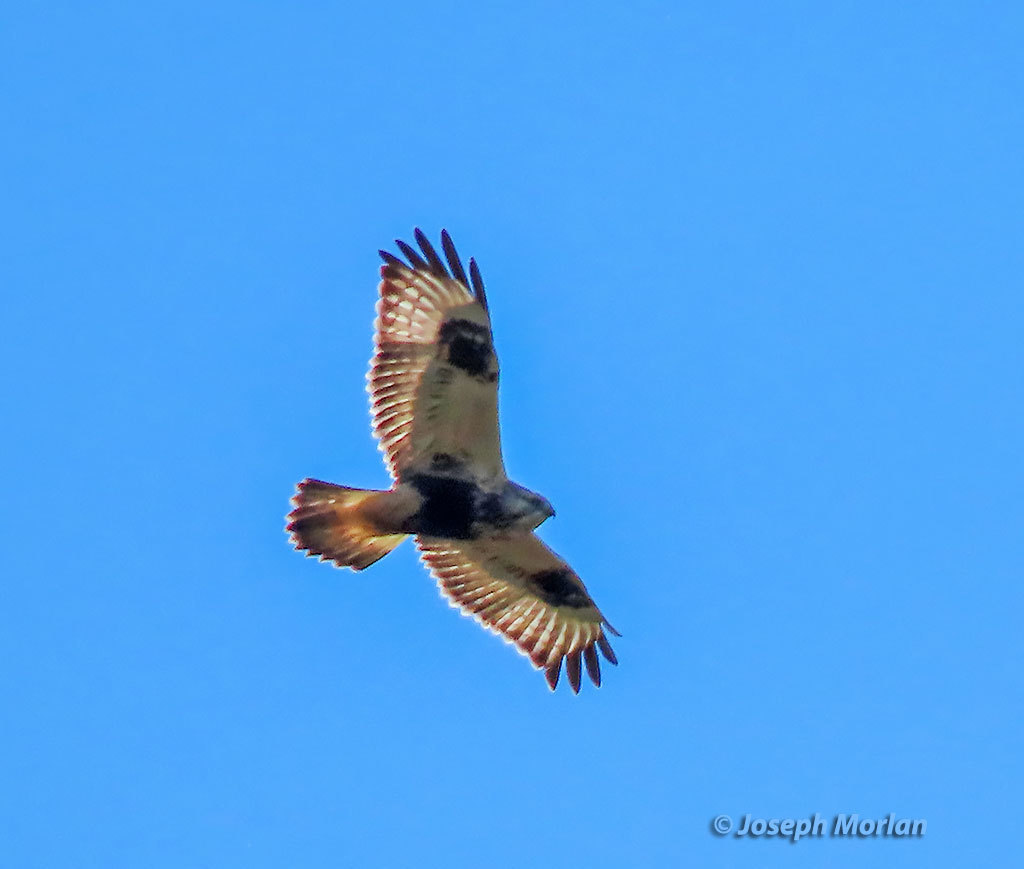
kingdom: Animalia
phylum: Chordata
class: Aves
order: Accipitriformes
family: Accipitridae
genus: Buteo
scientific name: Buteo lagopus
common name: Rough-legged buzzard
